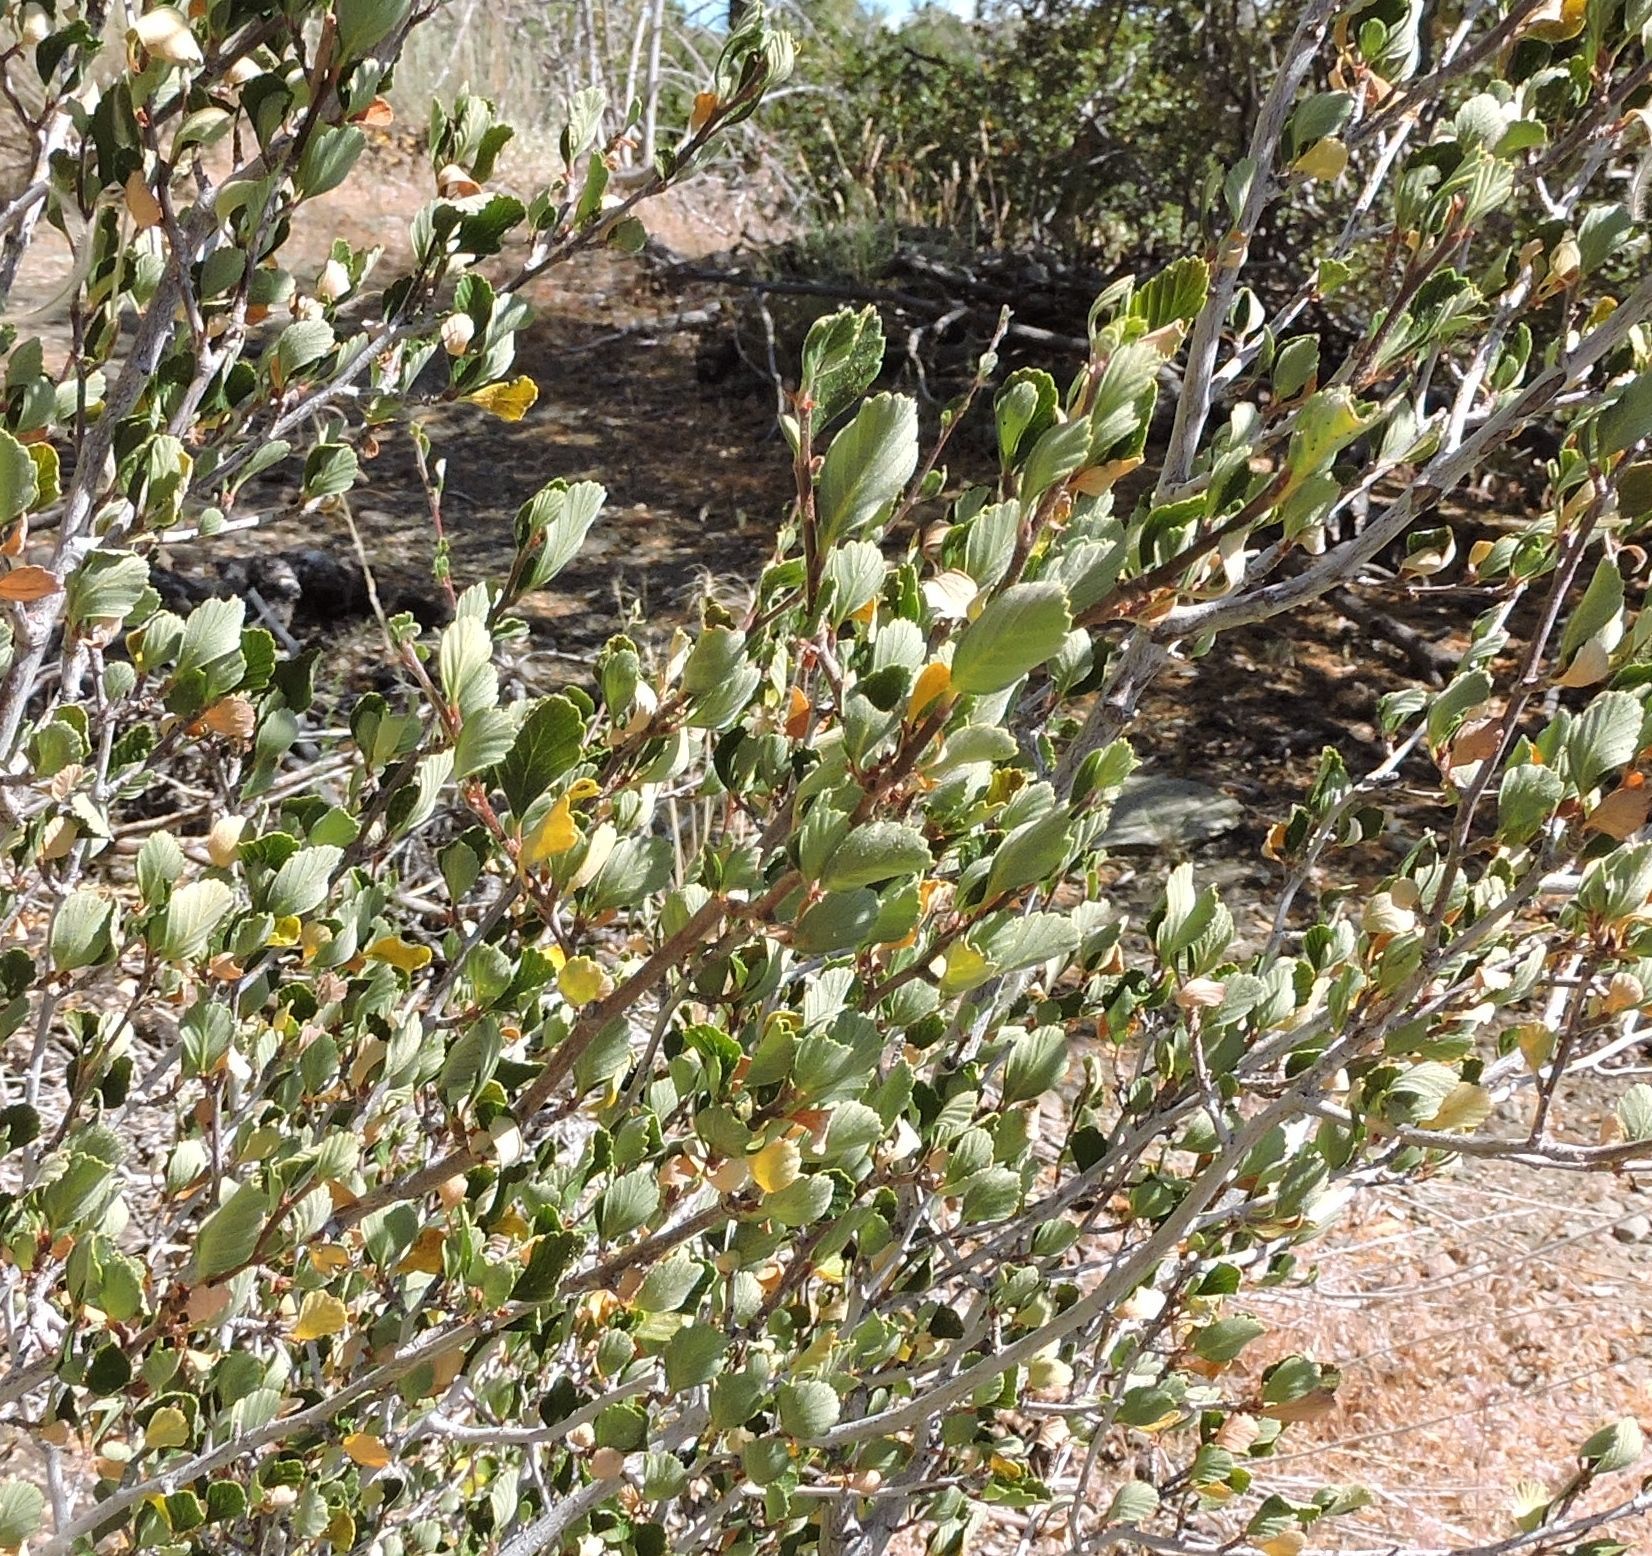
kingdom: Plantae
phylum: Tracheophyta
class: Magnoliopsida
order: Rosales
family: Rosaceae
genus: Cercocarpus
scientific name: Cercocarpus betuloides
